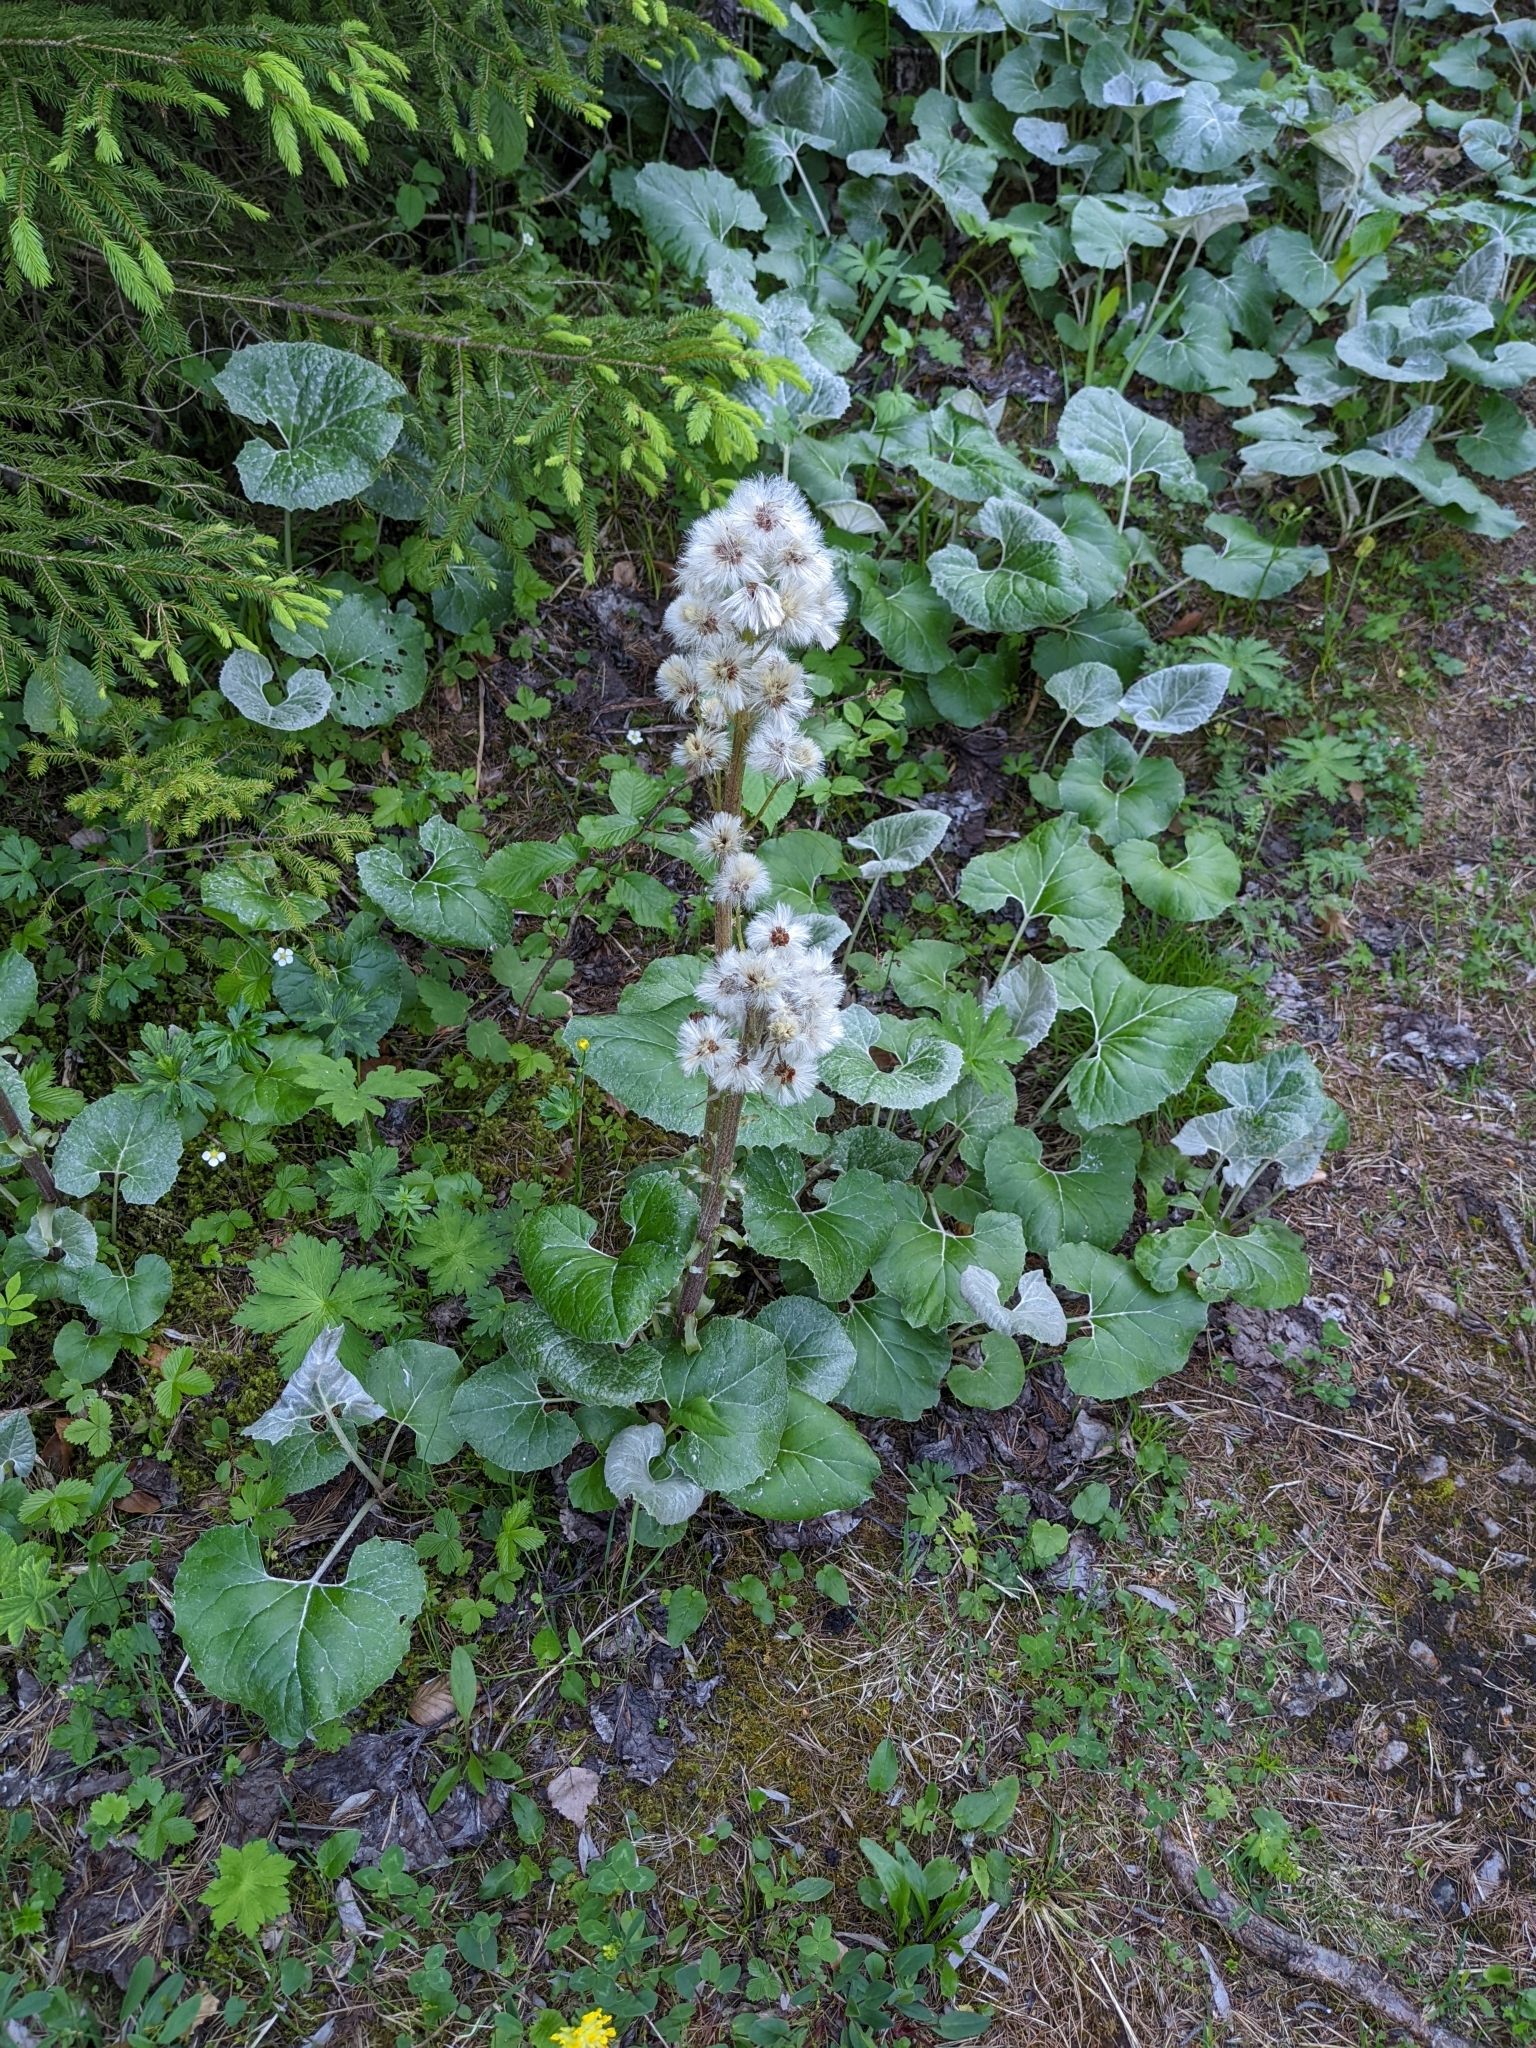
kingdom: Plantae
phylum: Tracheophyta
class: Magnoliopsida
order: Asterales
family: Asteraceae
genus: Petasites
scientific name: Petasites paradoxus
